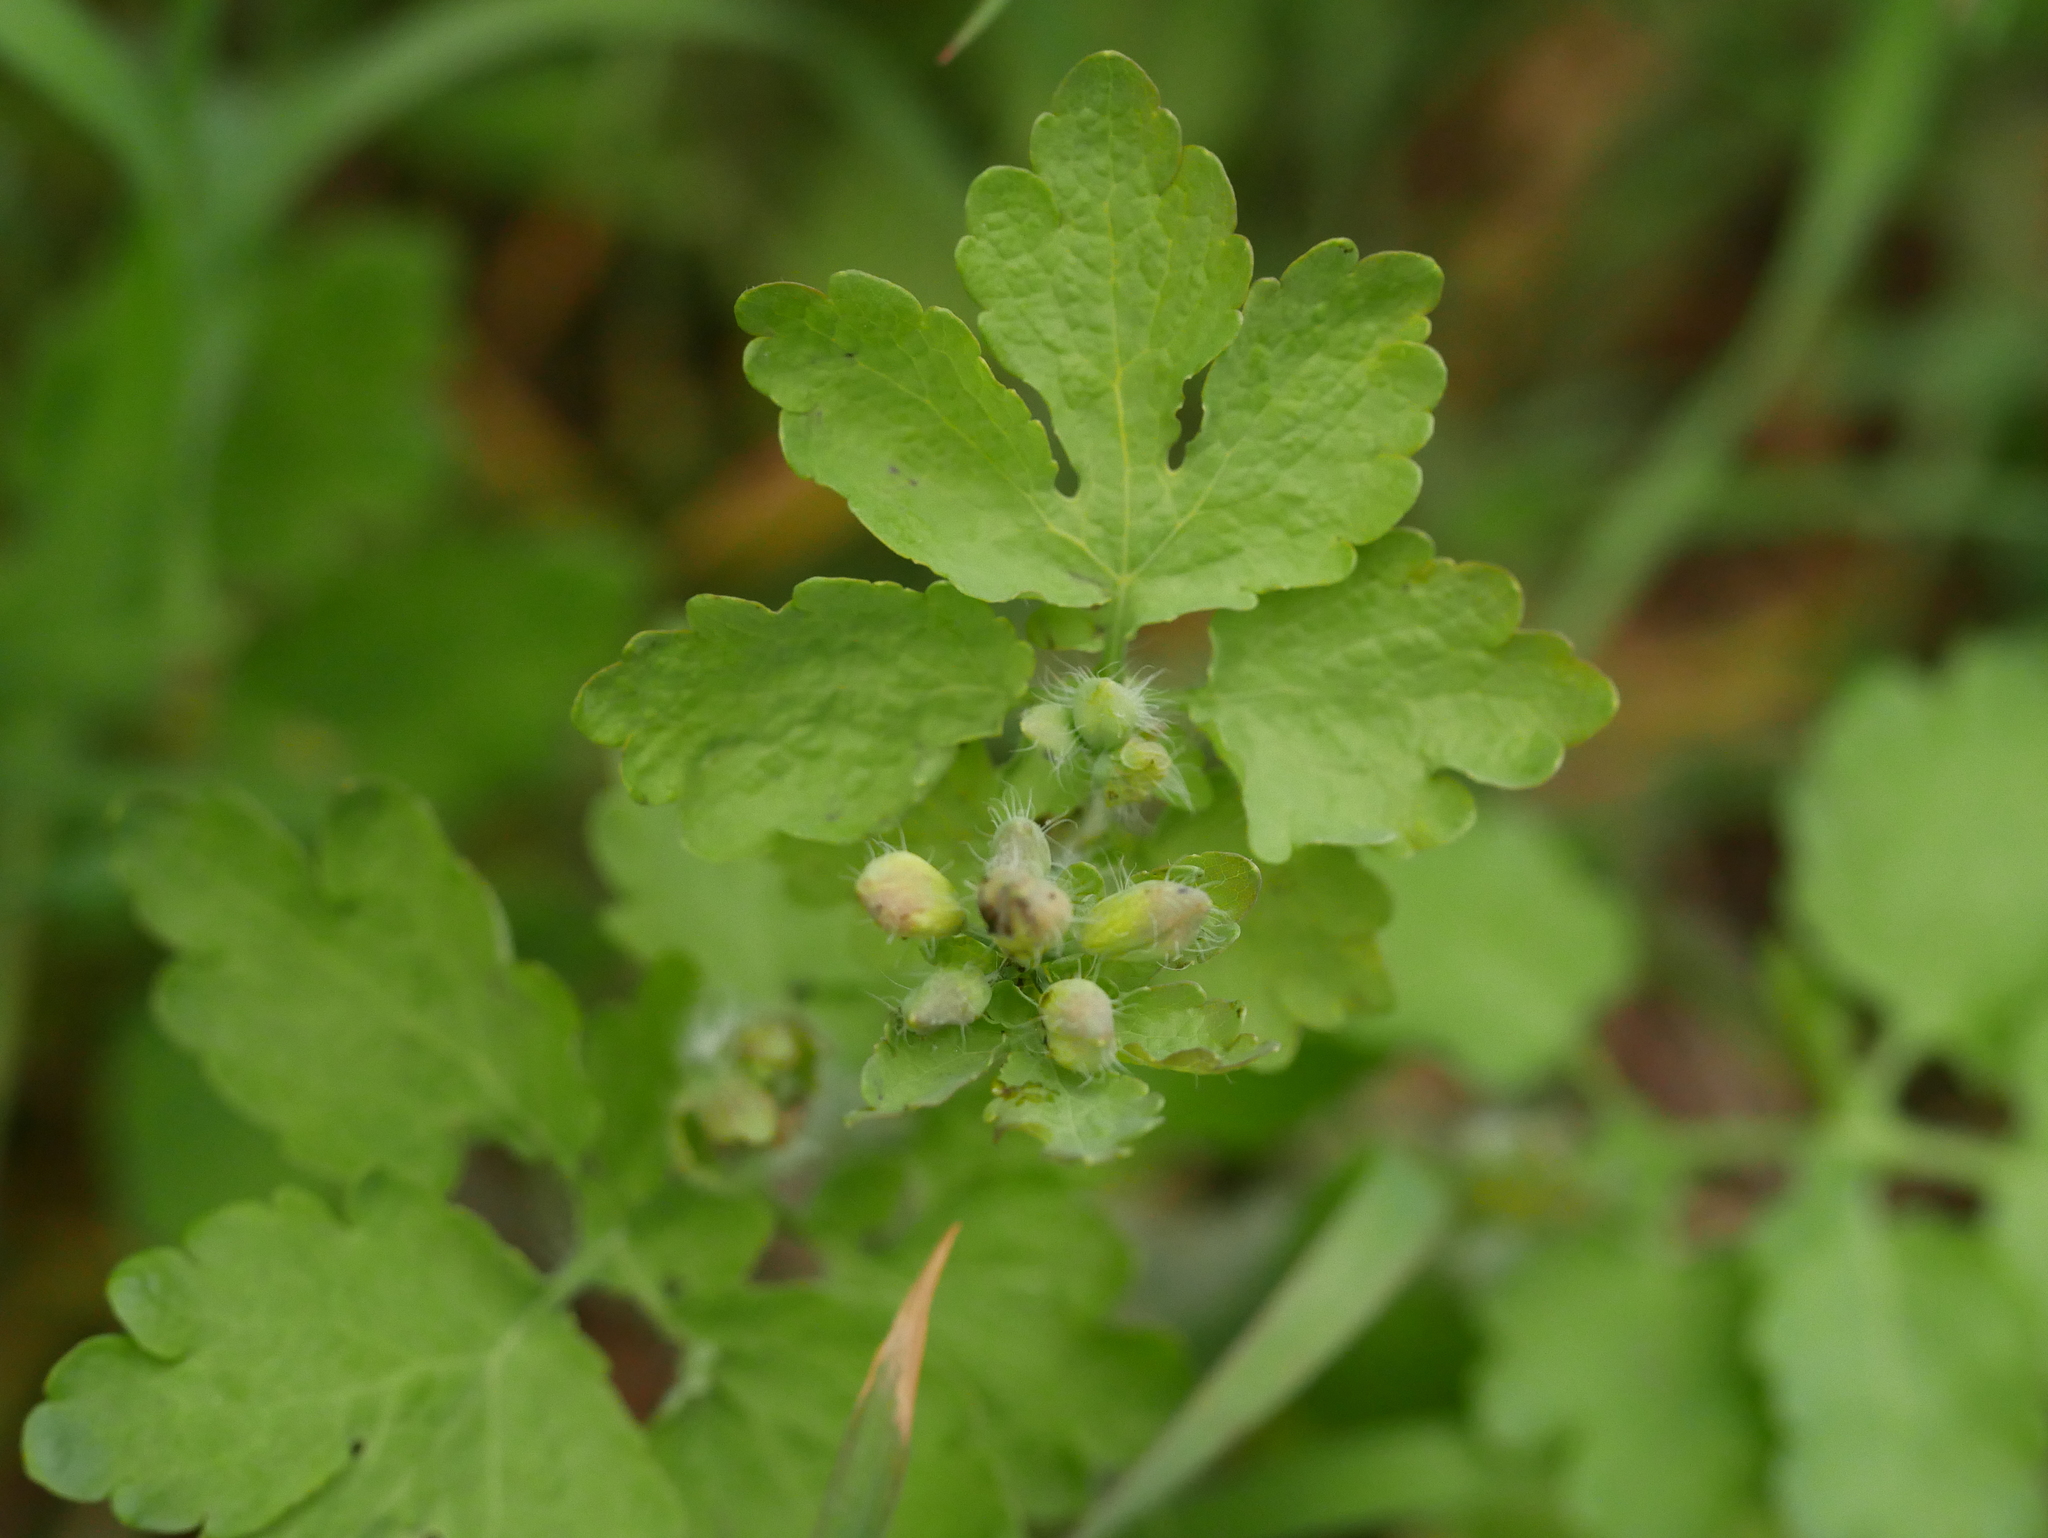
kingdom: Plantae
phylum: Tracheophyta
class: Magnoliopsida
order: Ranunculales
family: Papaveraceae
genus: Chelidonium
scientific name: Chelidonium majus
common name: Greater celandine
